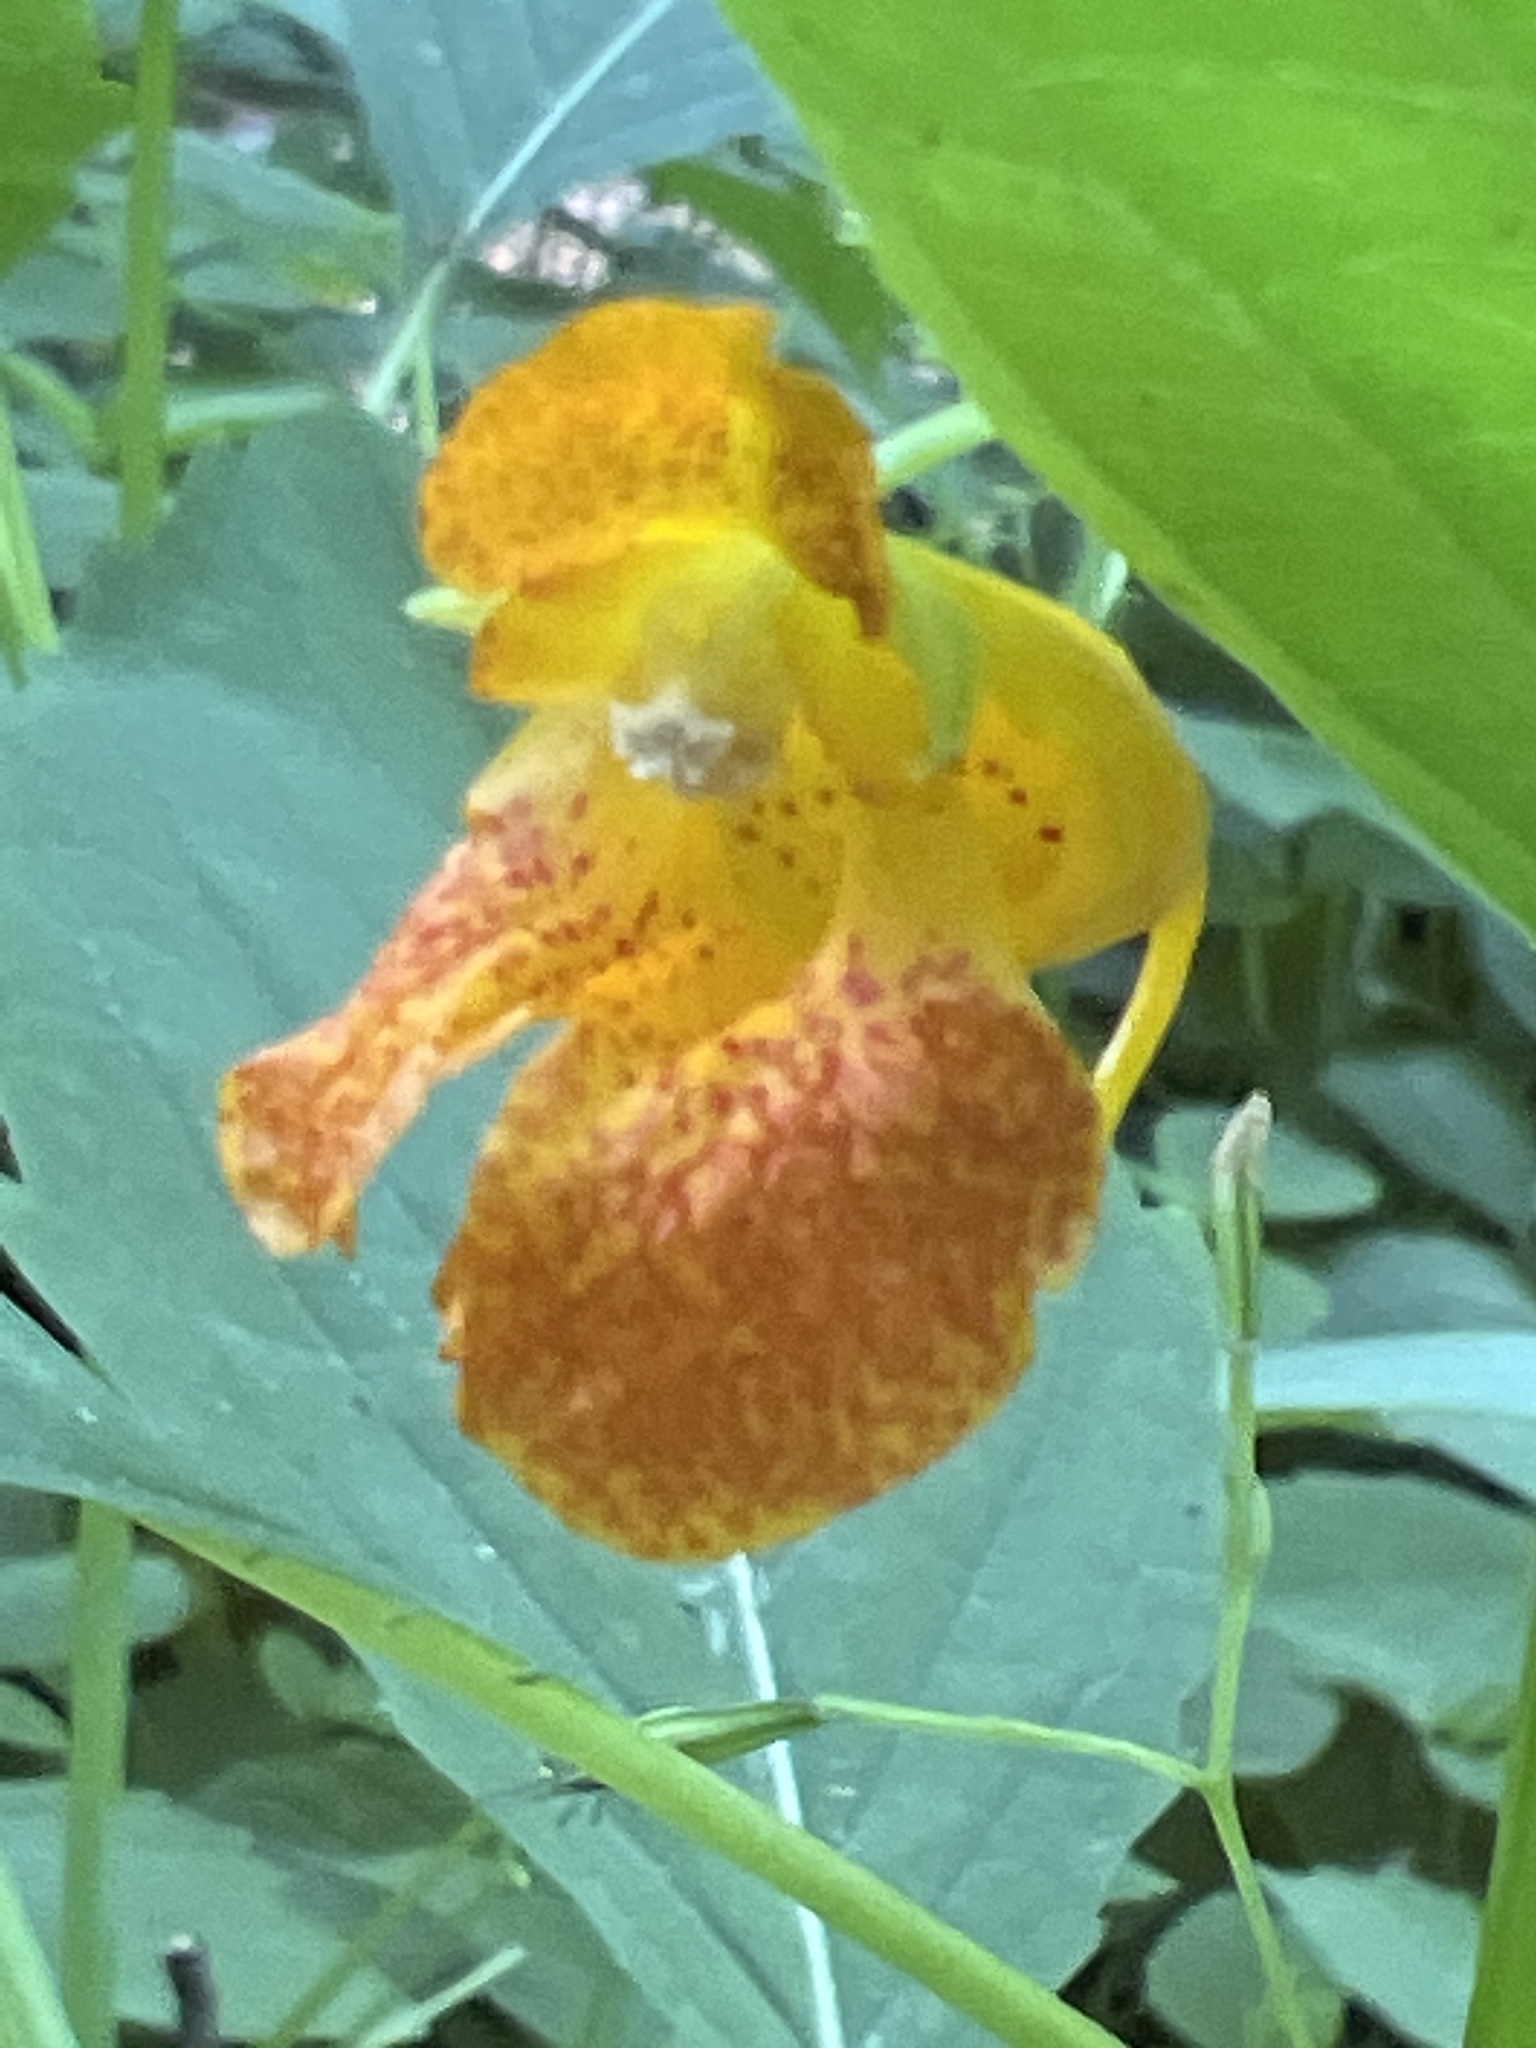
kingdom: Plantae
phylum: Tracheophyta
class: Magnoliopsida
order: Ericales
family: Balsaminaceae
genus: Impatiens
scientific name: Impatiens capensis
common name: Orange balsam
